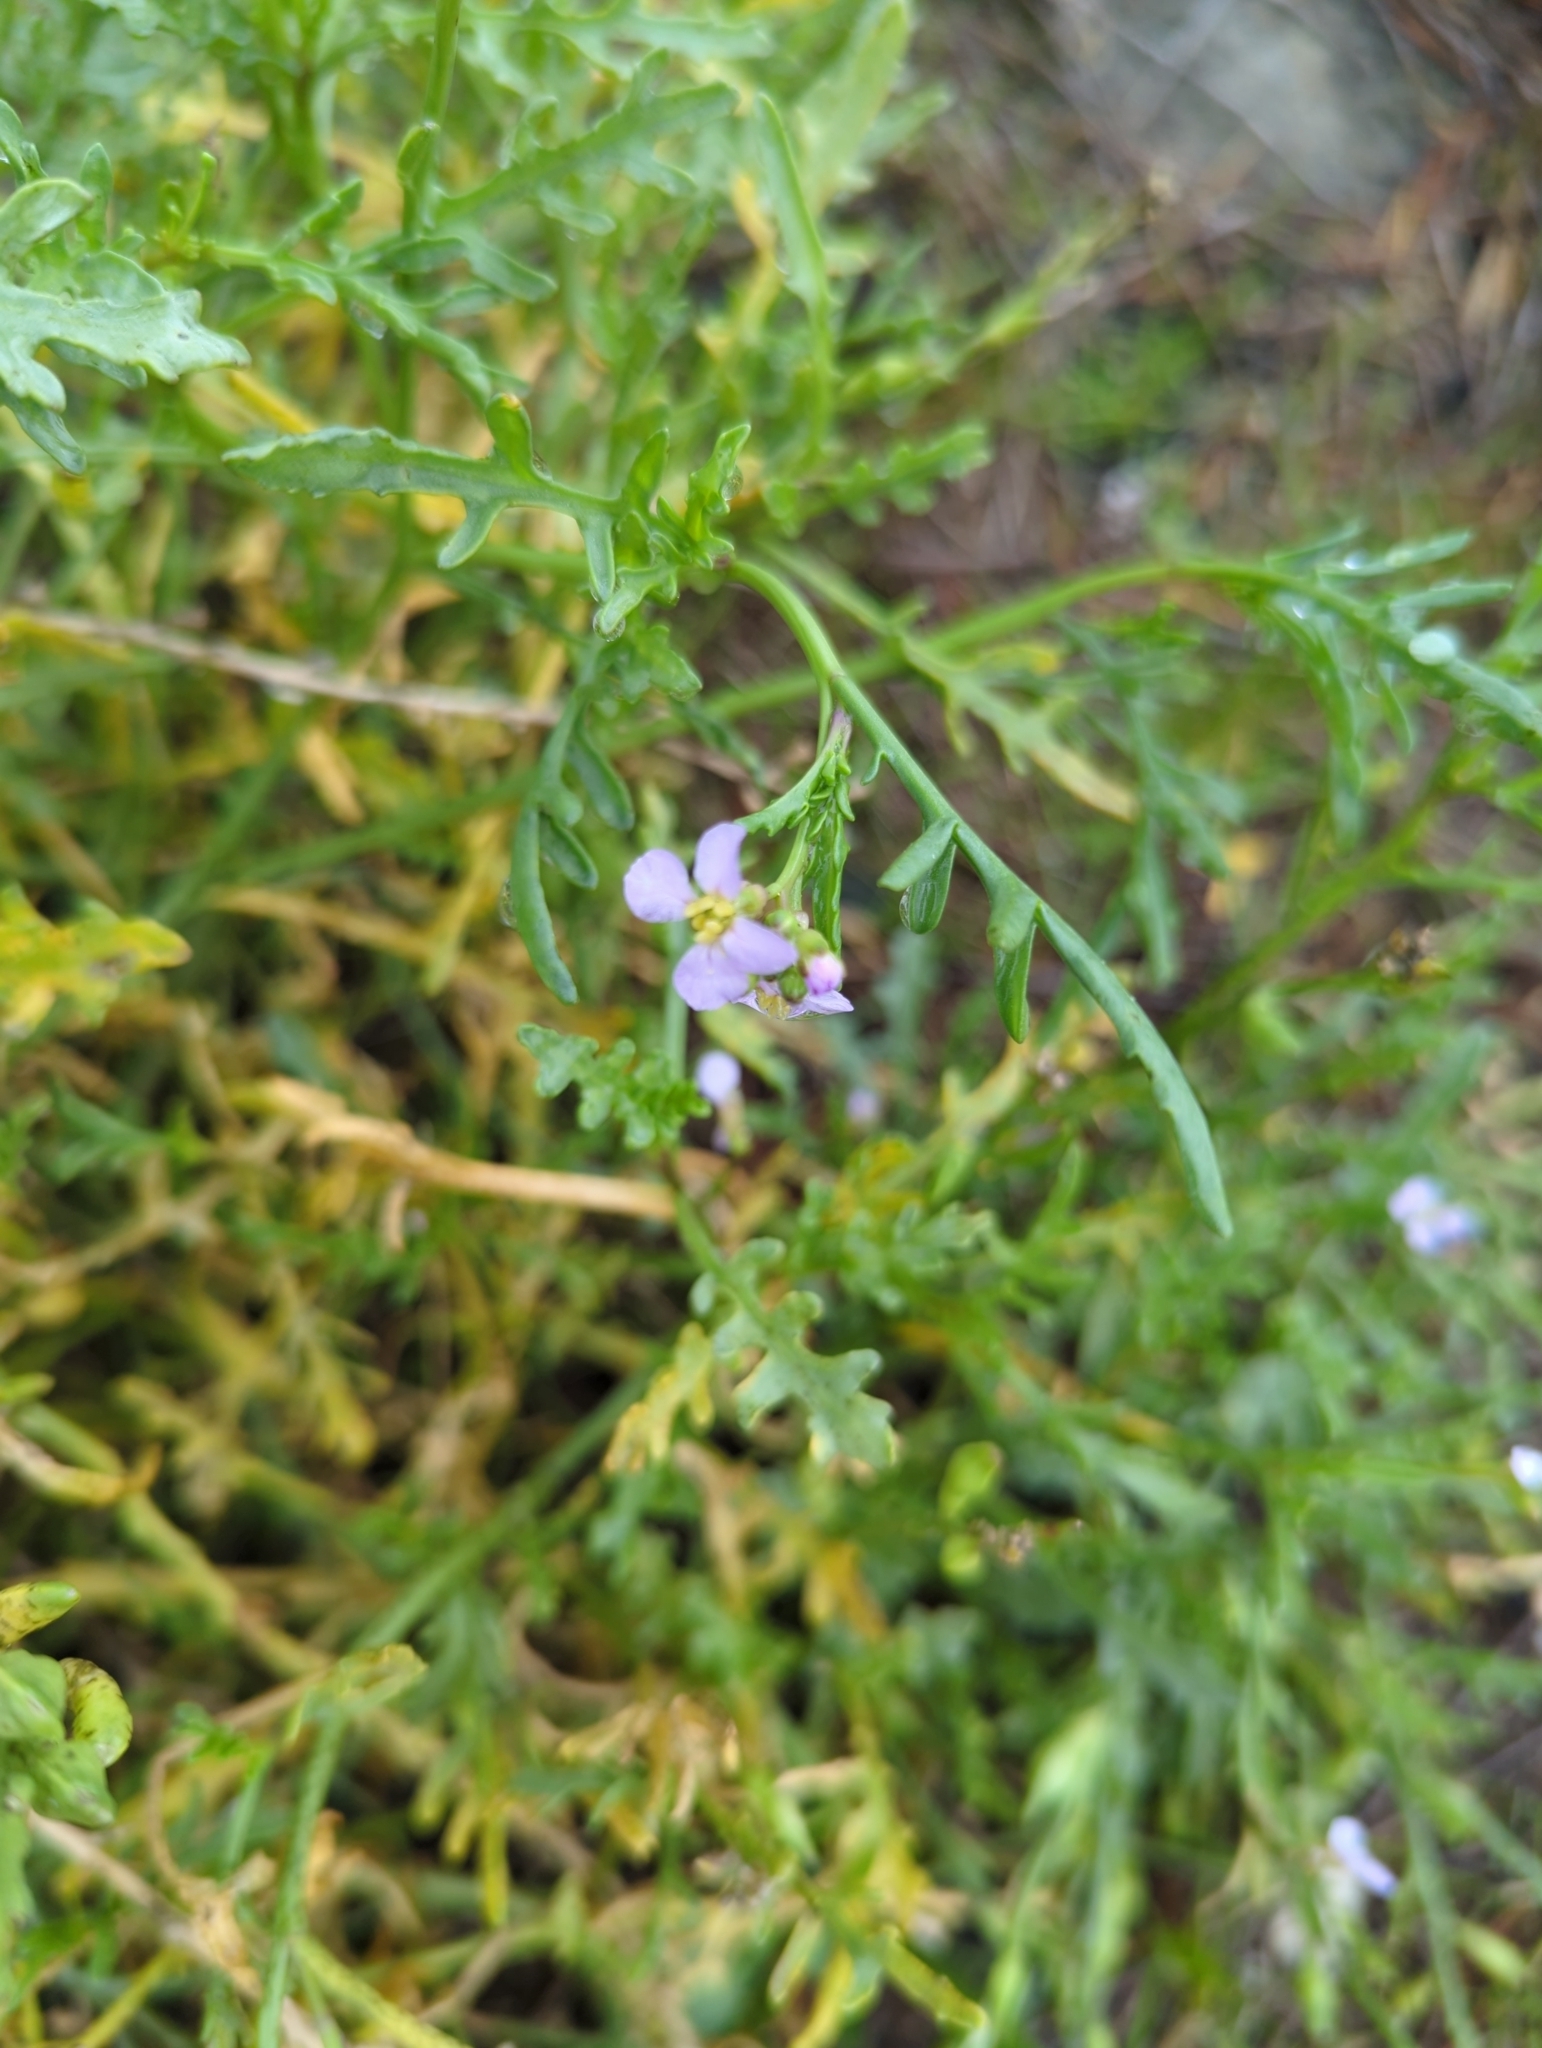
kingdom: Plantae
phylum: Tracheophyta
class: Magnoliopsida
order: Brassicales
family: Brassicaceae
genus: Cakile
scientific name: Cakile maritima
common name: Sea rocket
